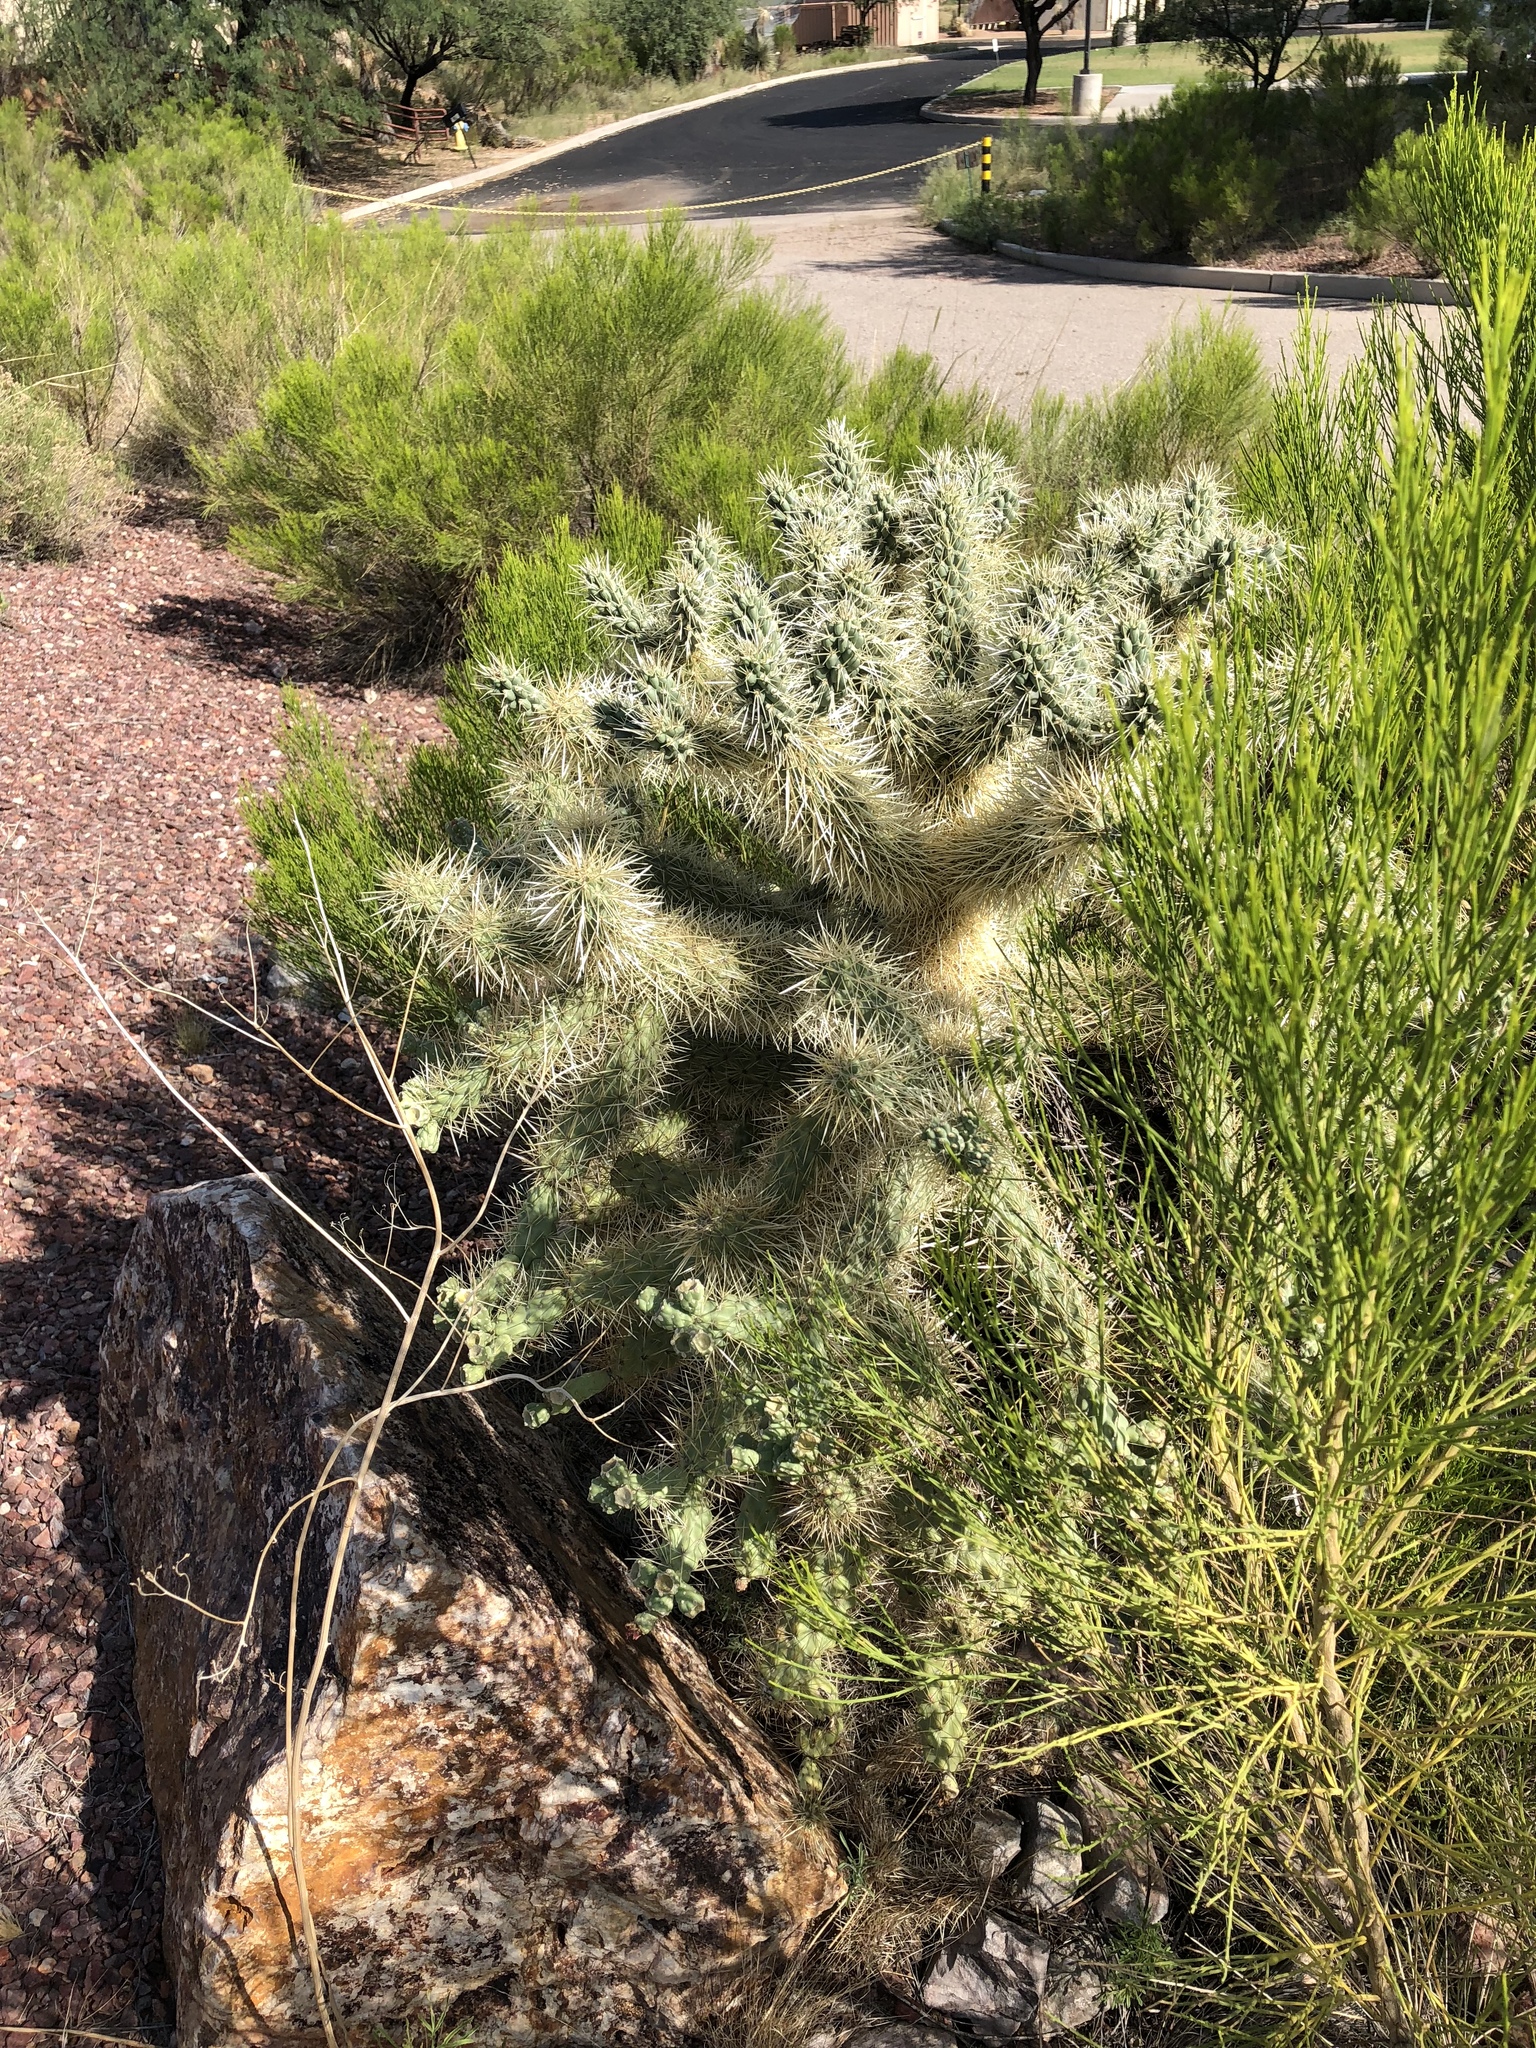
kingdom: Plantae
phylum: Tracheophyta
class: Magnoliopsida
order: Caryophyllales
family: Cactaceae
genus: Cylindropuntia
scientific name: Cylindropuntia fulgida
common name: Jumping cholla
